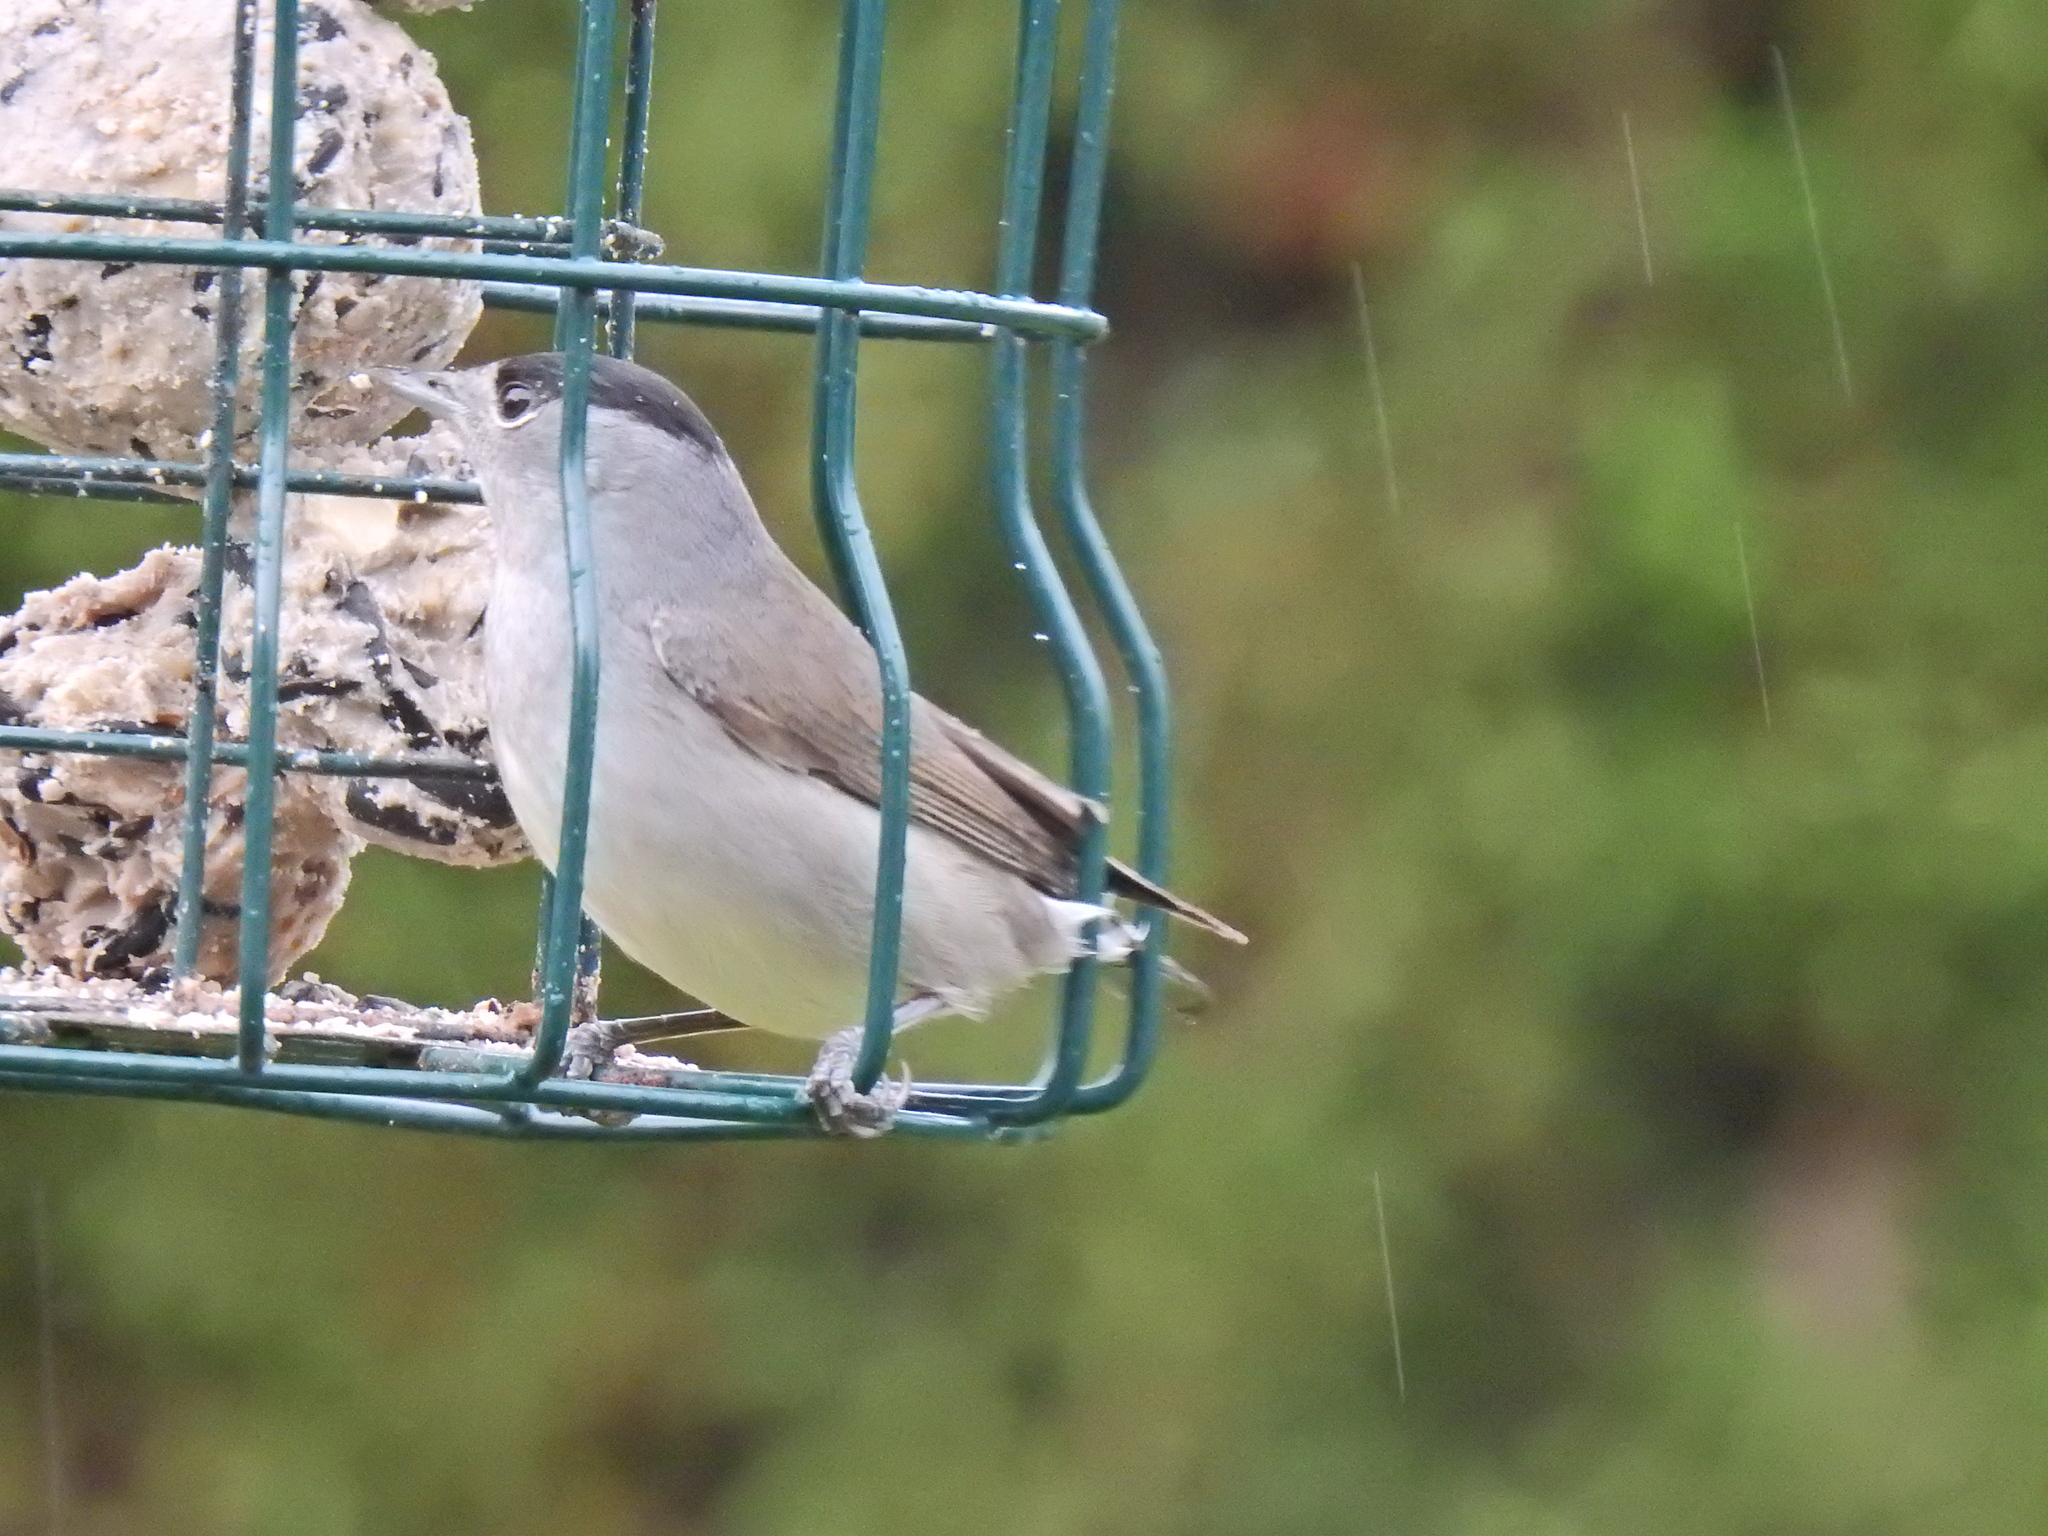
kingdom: Animalia
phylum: Chordata
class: Aves
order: Passeriformes
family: Sylviidae
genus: Sylvia
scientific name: Sylvia atricapilla
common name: Eurasian blackcap
